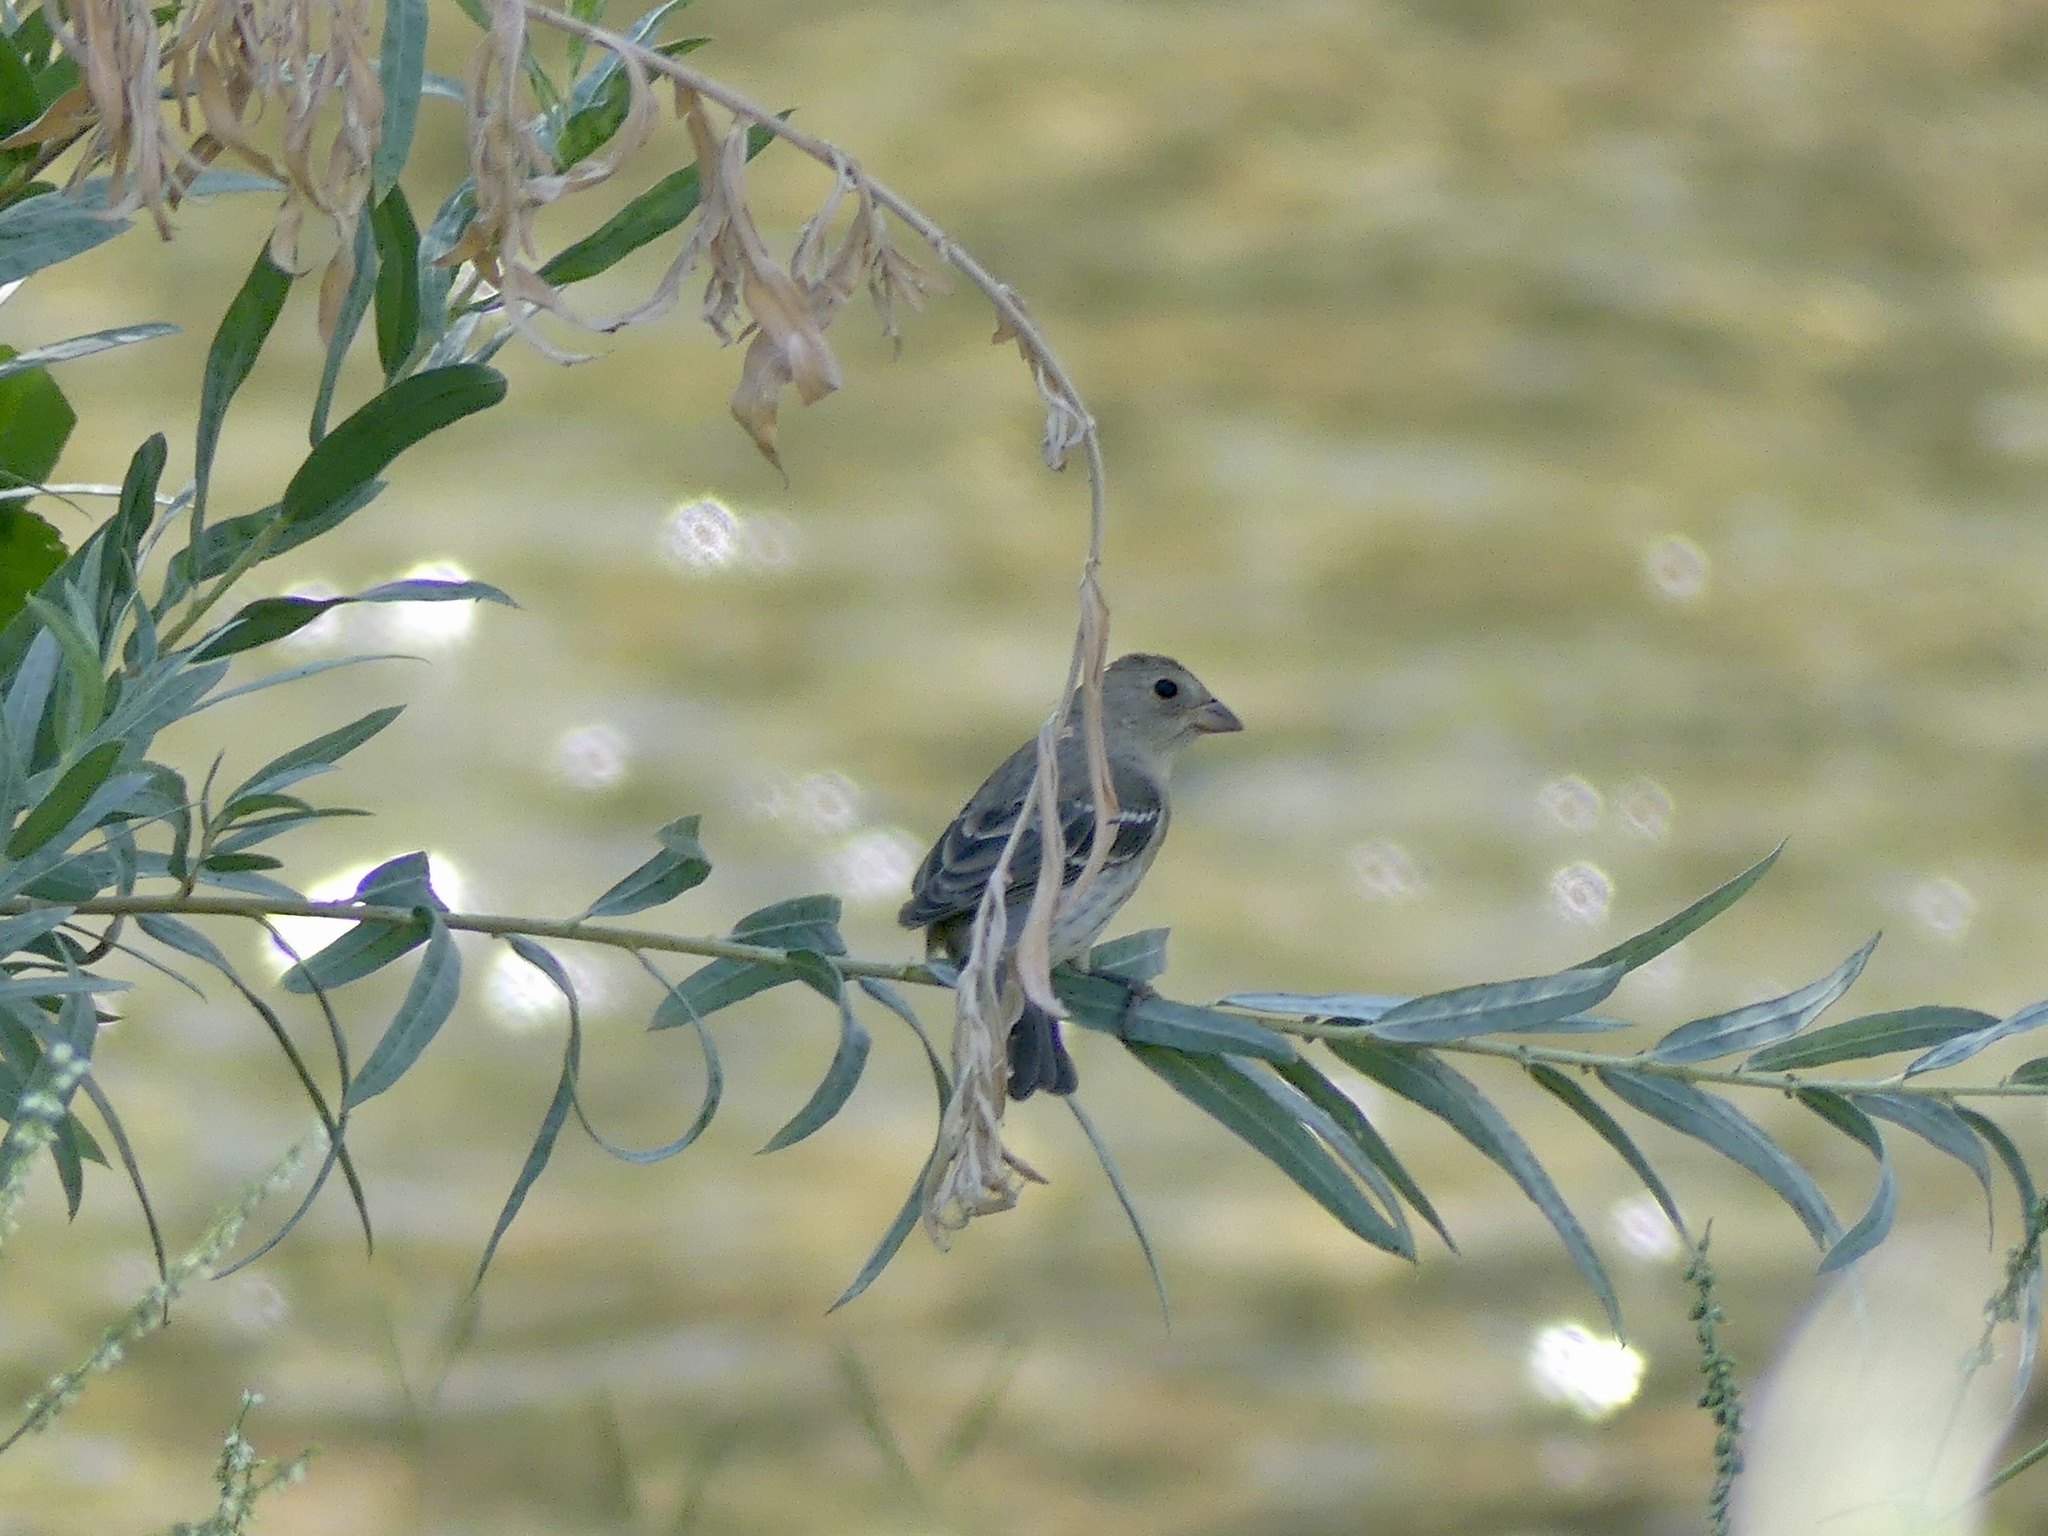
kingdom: Animalia
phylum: Chordata
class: Aves
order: Passeriformes
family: Cardinalidae
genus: Passerina
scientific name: Passerina amoena
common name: Lazuli bunting
